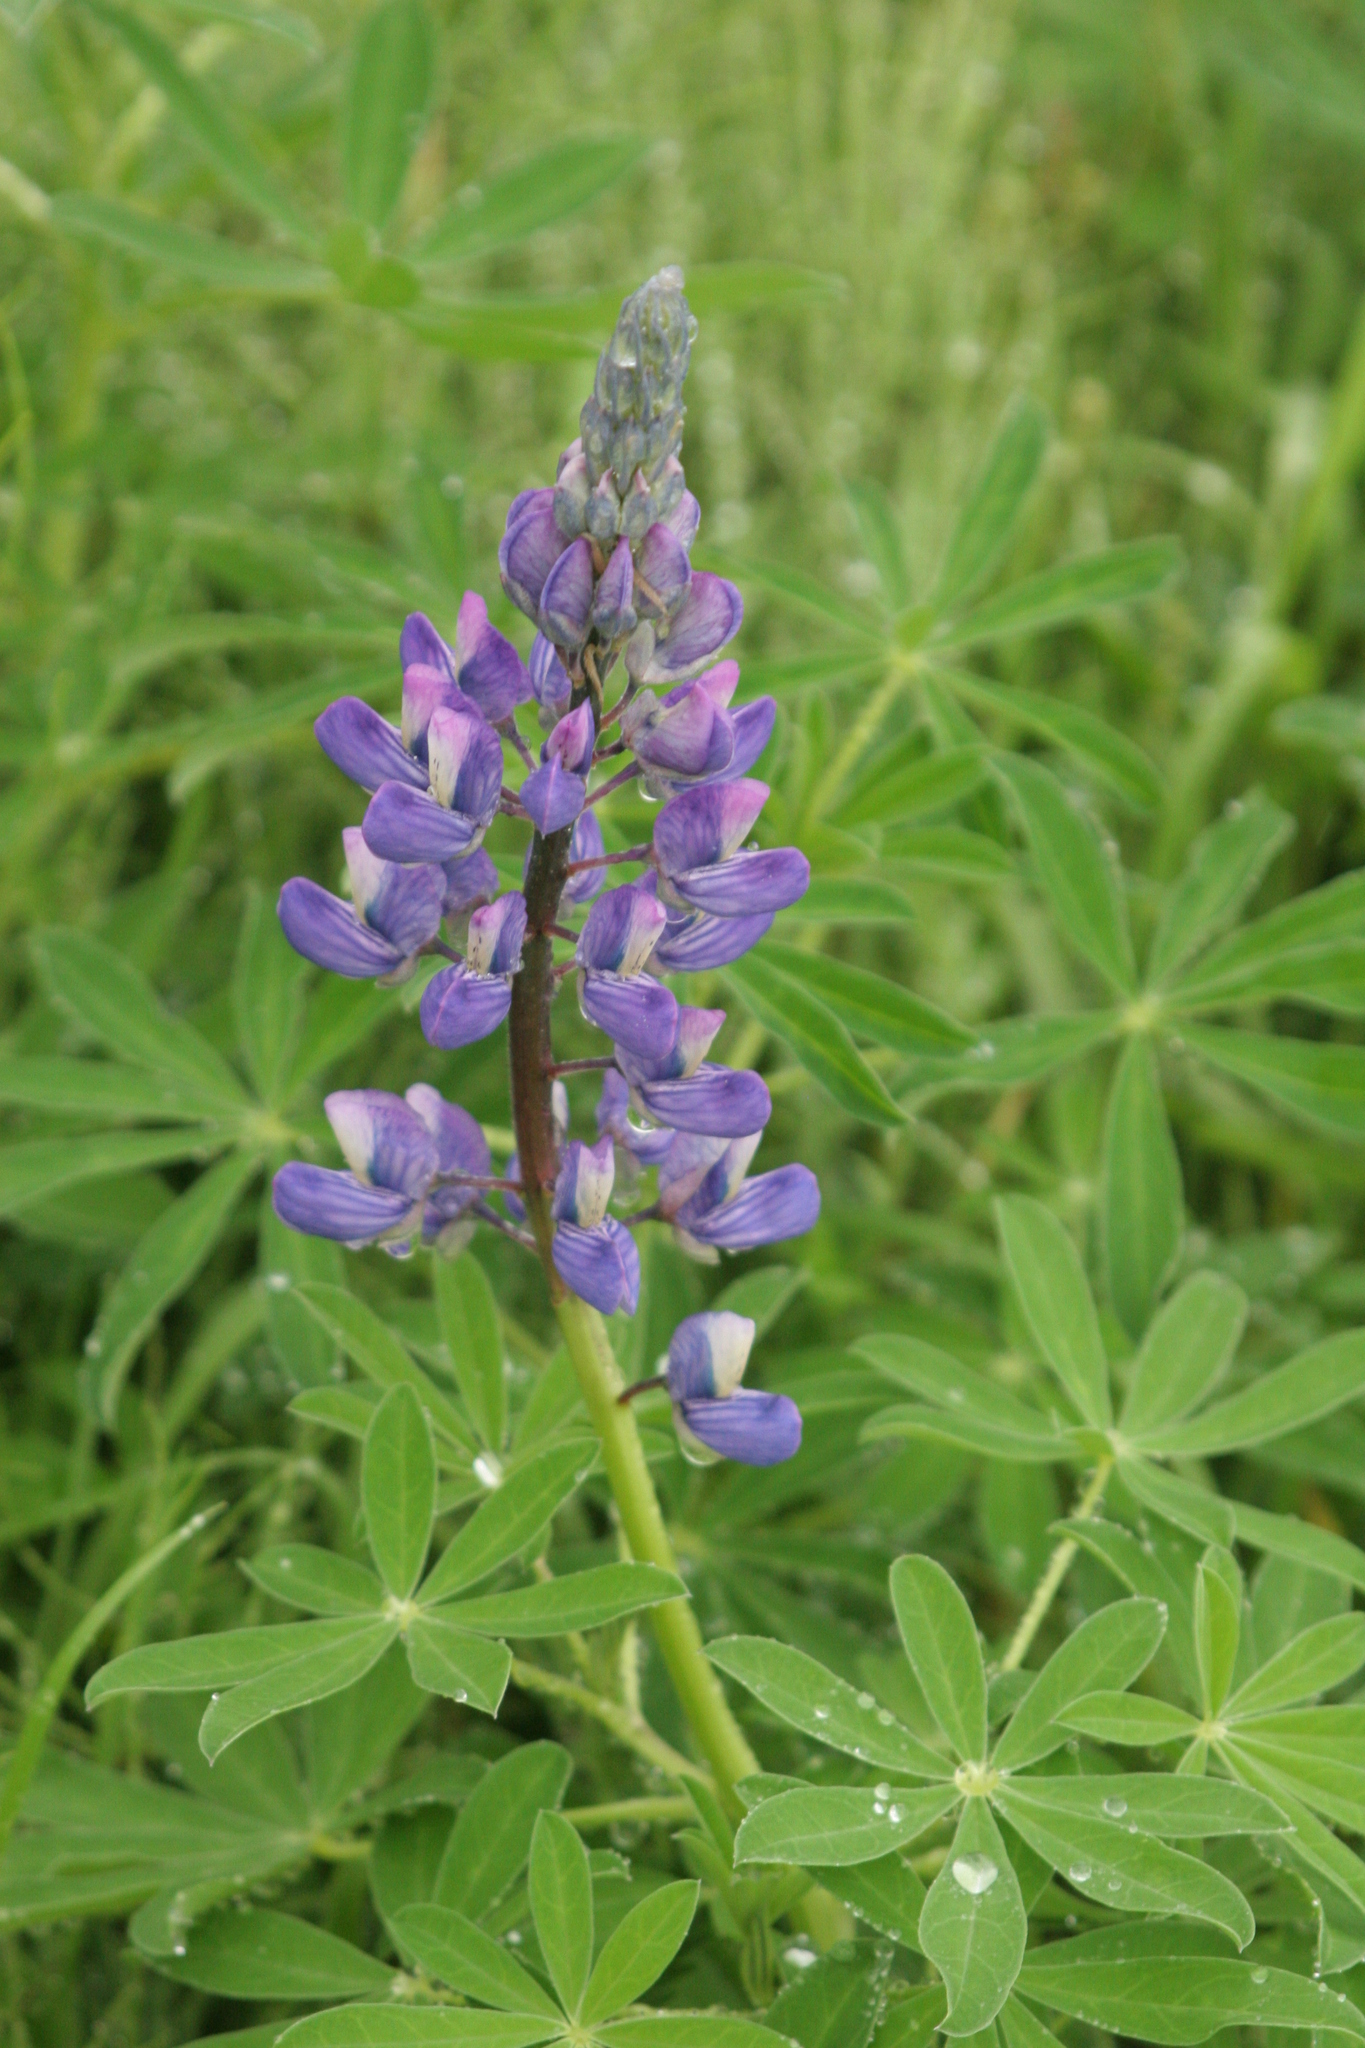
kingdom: Plantae
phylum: Tracheophyta
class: Magnoliopsida
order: Fabales
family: Fabaceae
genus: Lupinus
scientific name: Lupinus nootkatensis
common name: Nootka lupine
